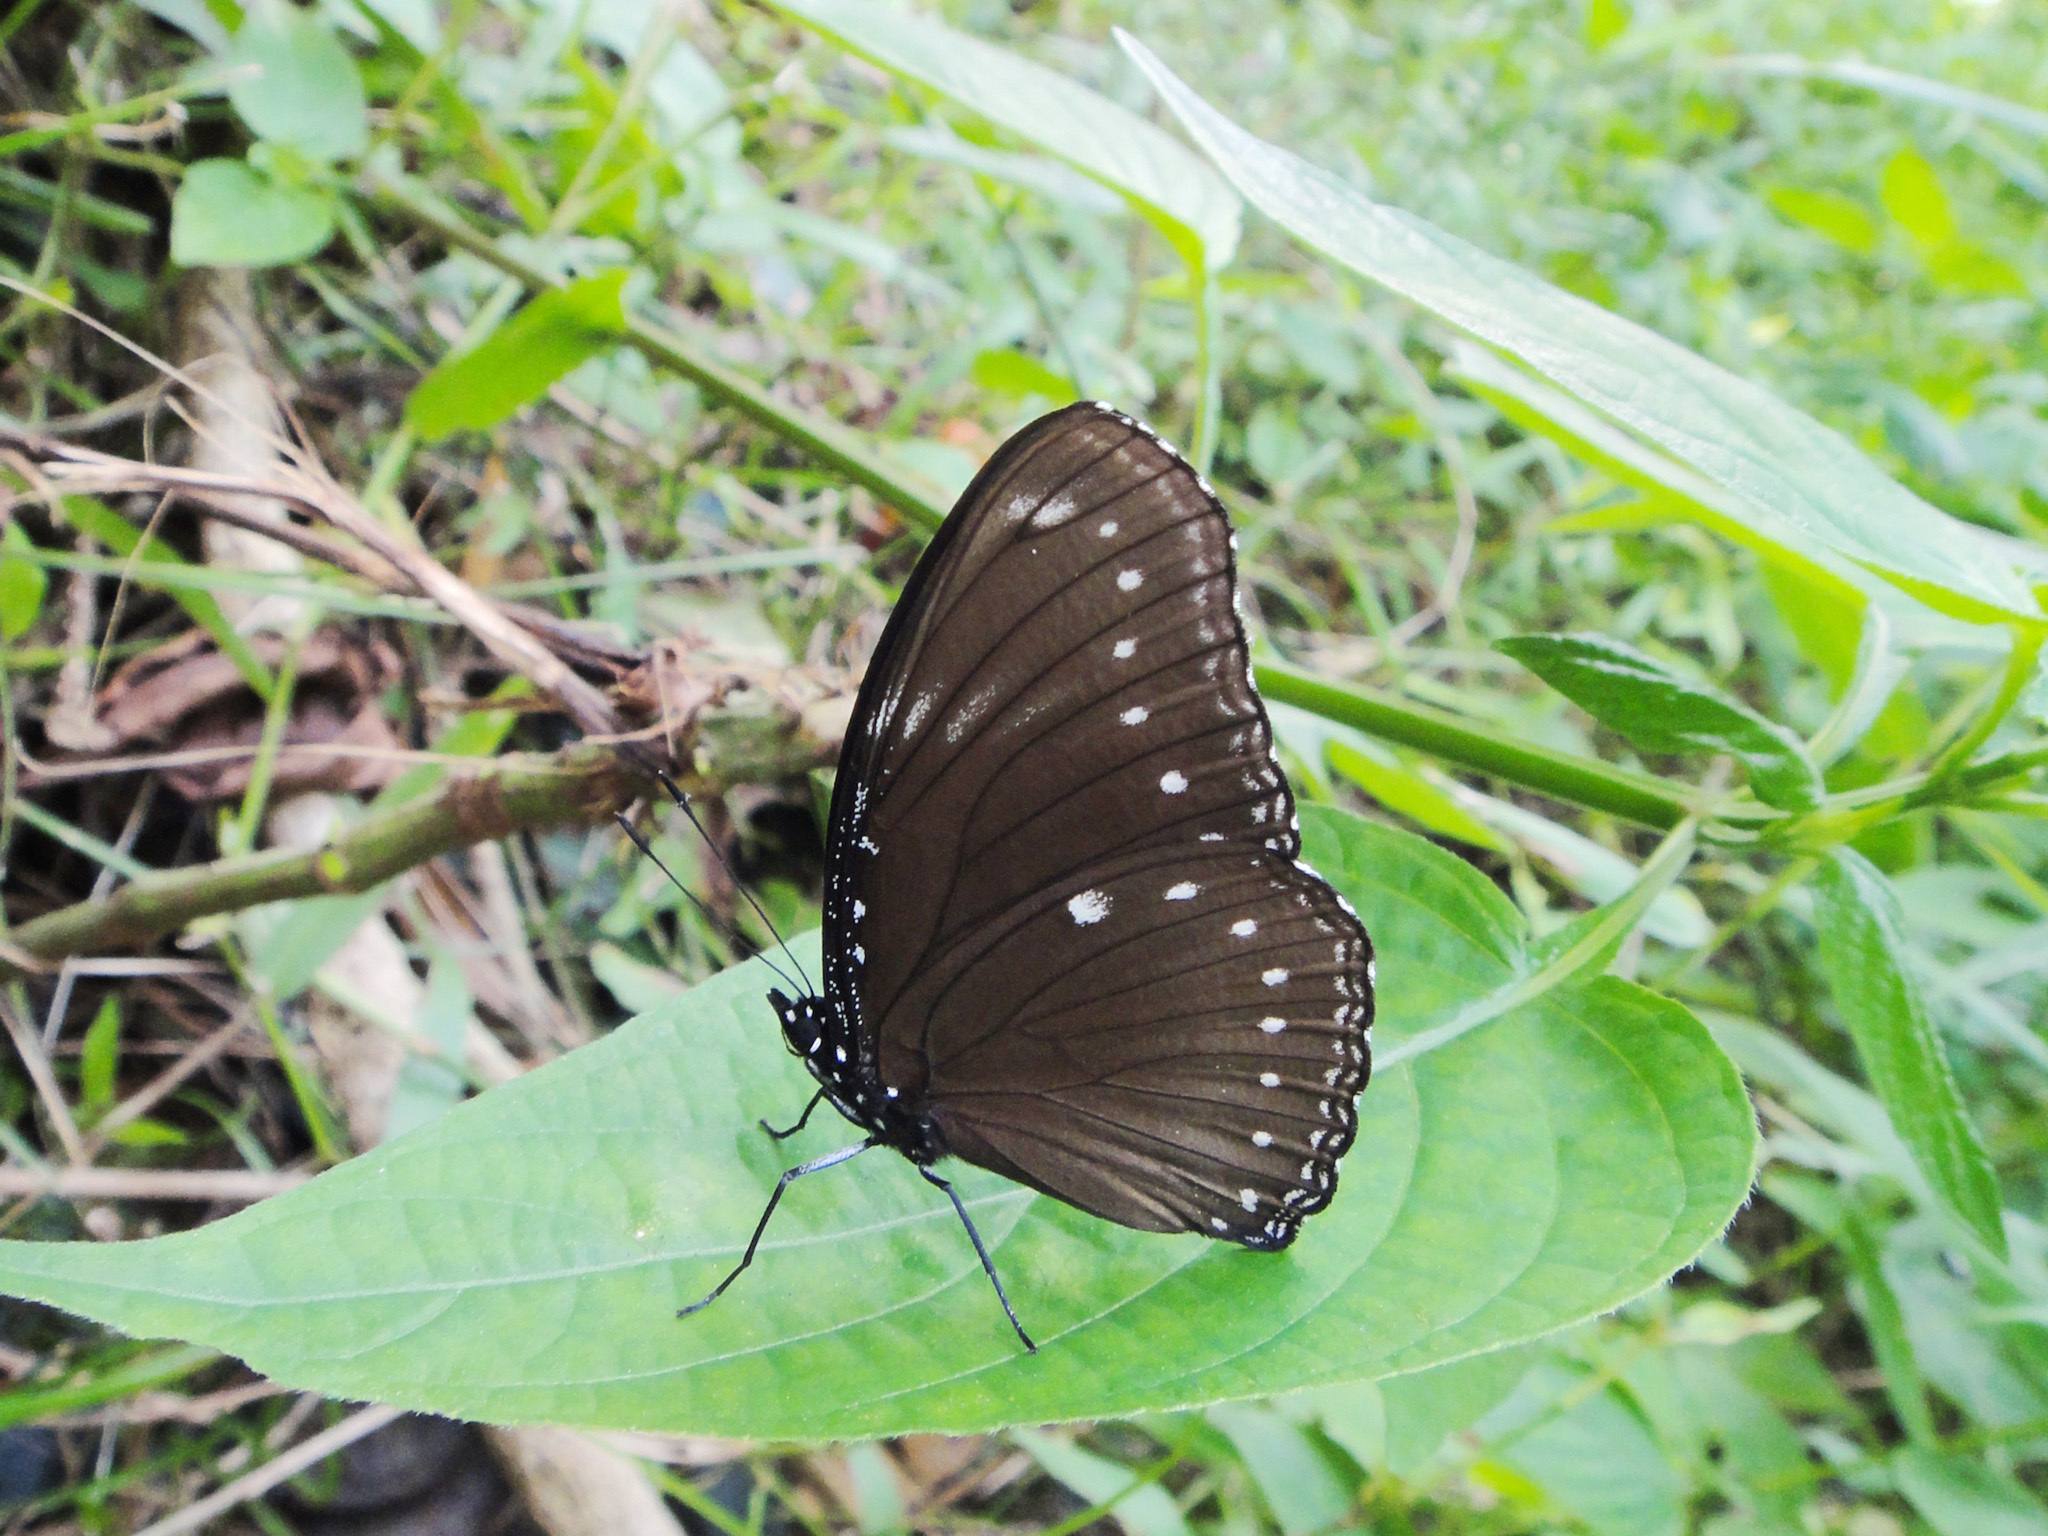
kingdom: Animalia
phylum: Arthropoda
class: Insecta
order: Lepidoptera
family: Nymphalidae
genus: Hypolimnas
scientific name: Hypolimnas anomala
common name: Malayan eggfly
